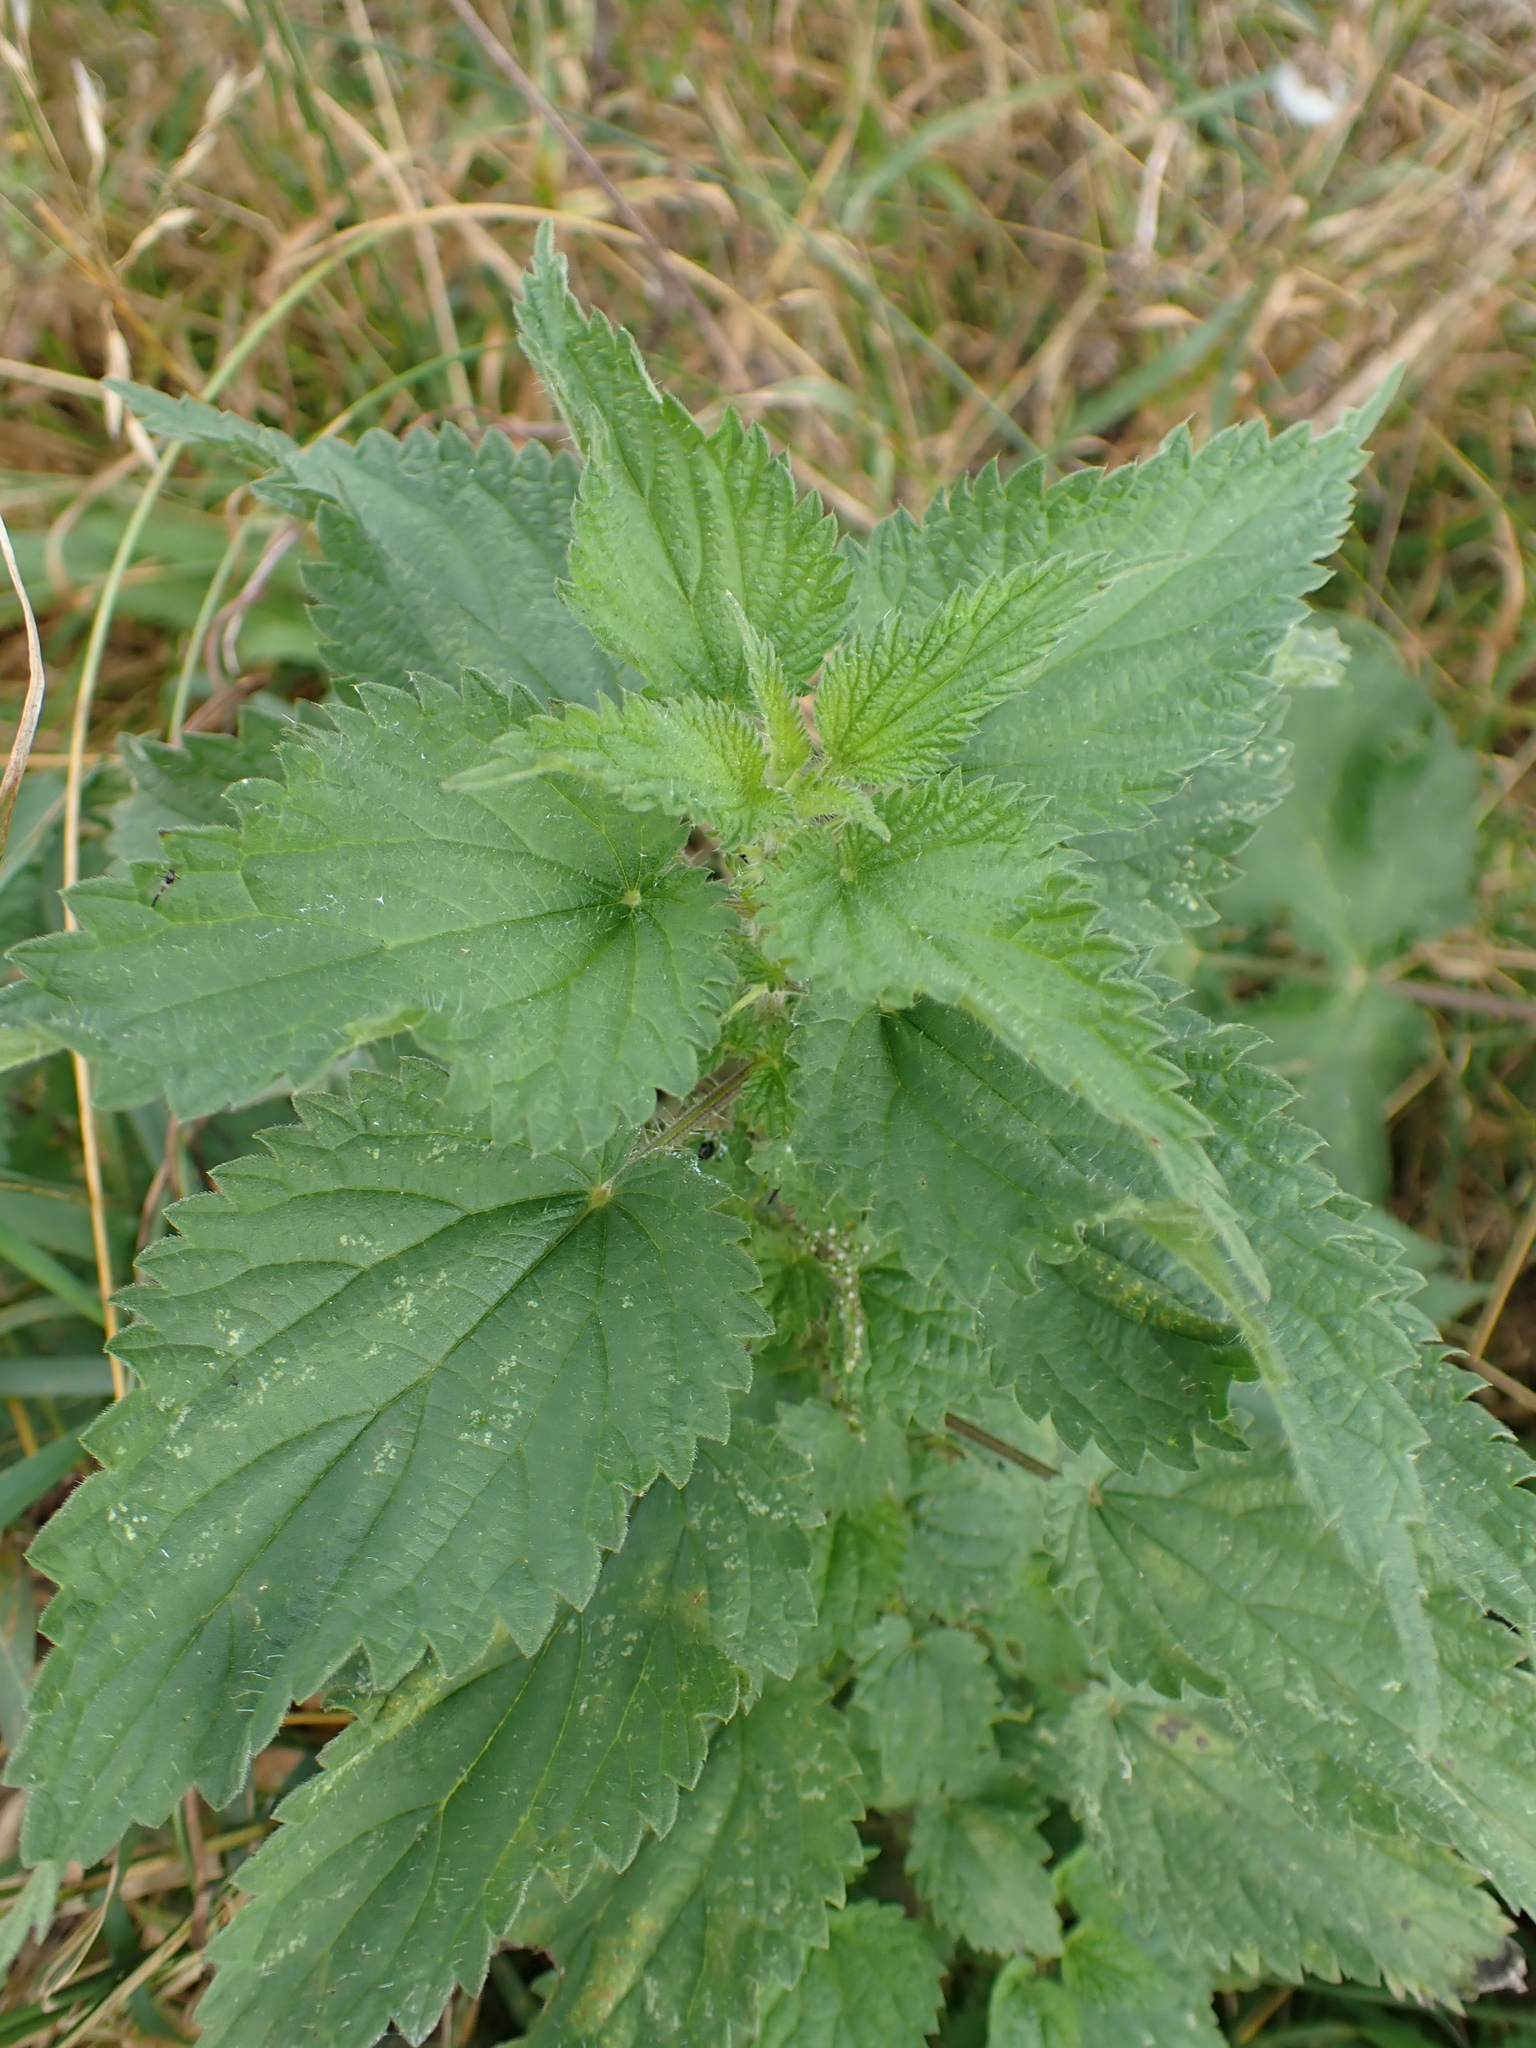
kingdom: Plantae
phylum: Tracheophyta
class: Magnoliopsida
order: Rosales
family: Urticaceae
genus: Urtica
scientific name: Urtica dioica
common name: Common nettle
